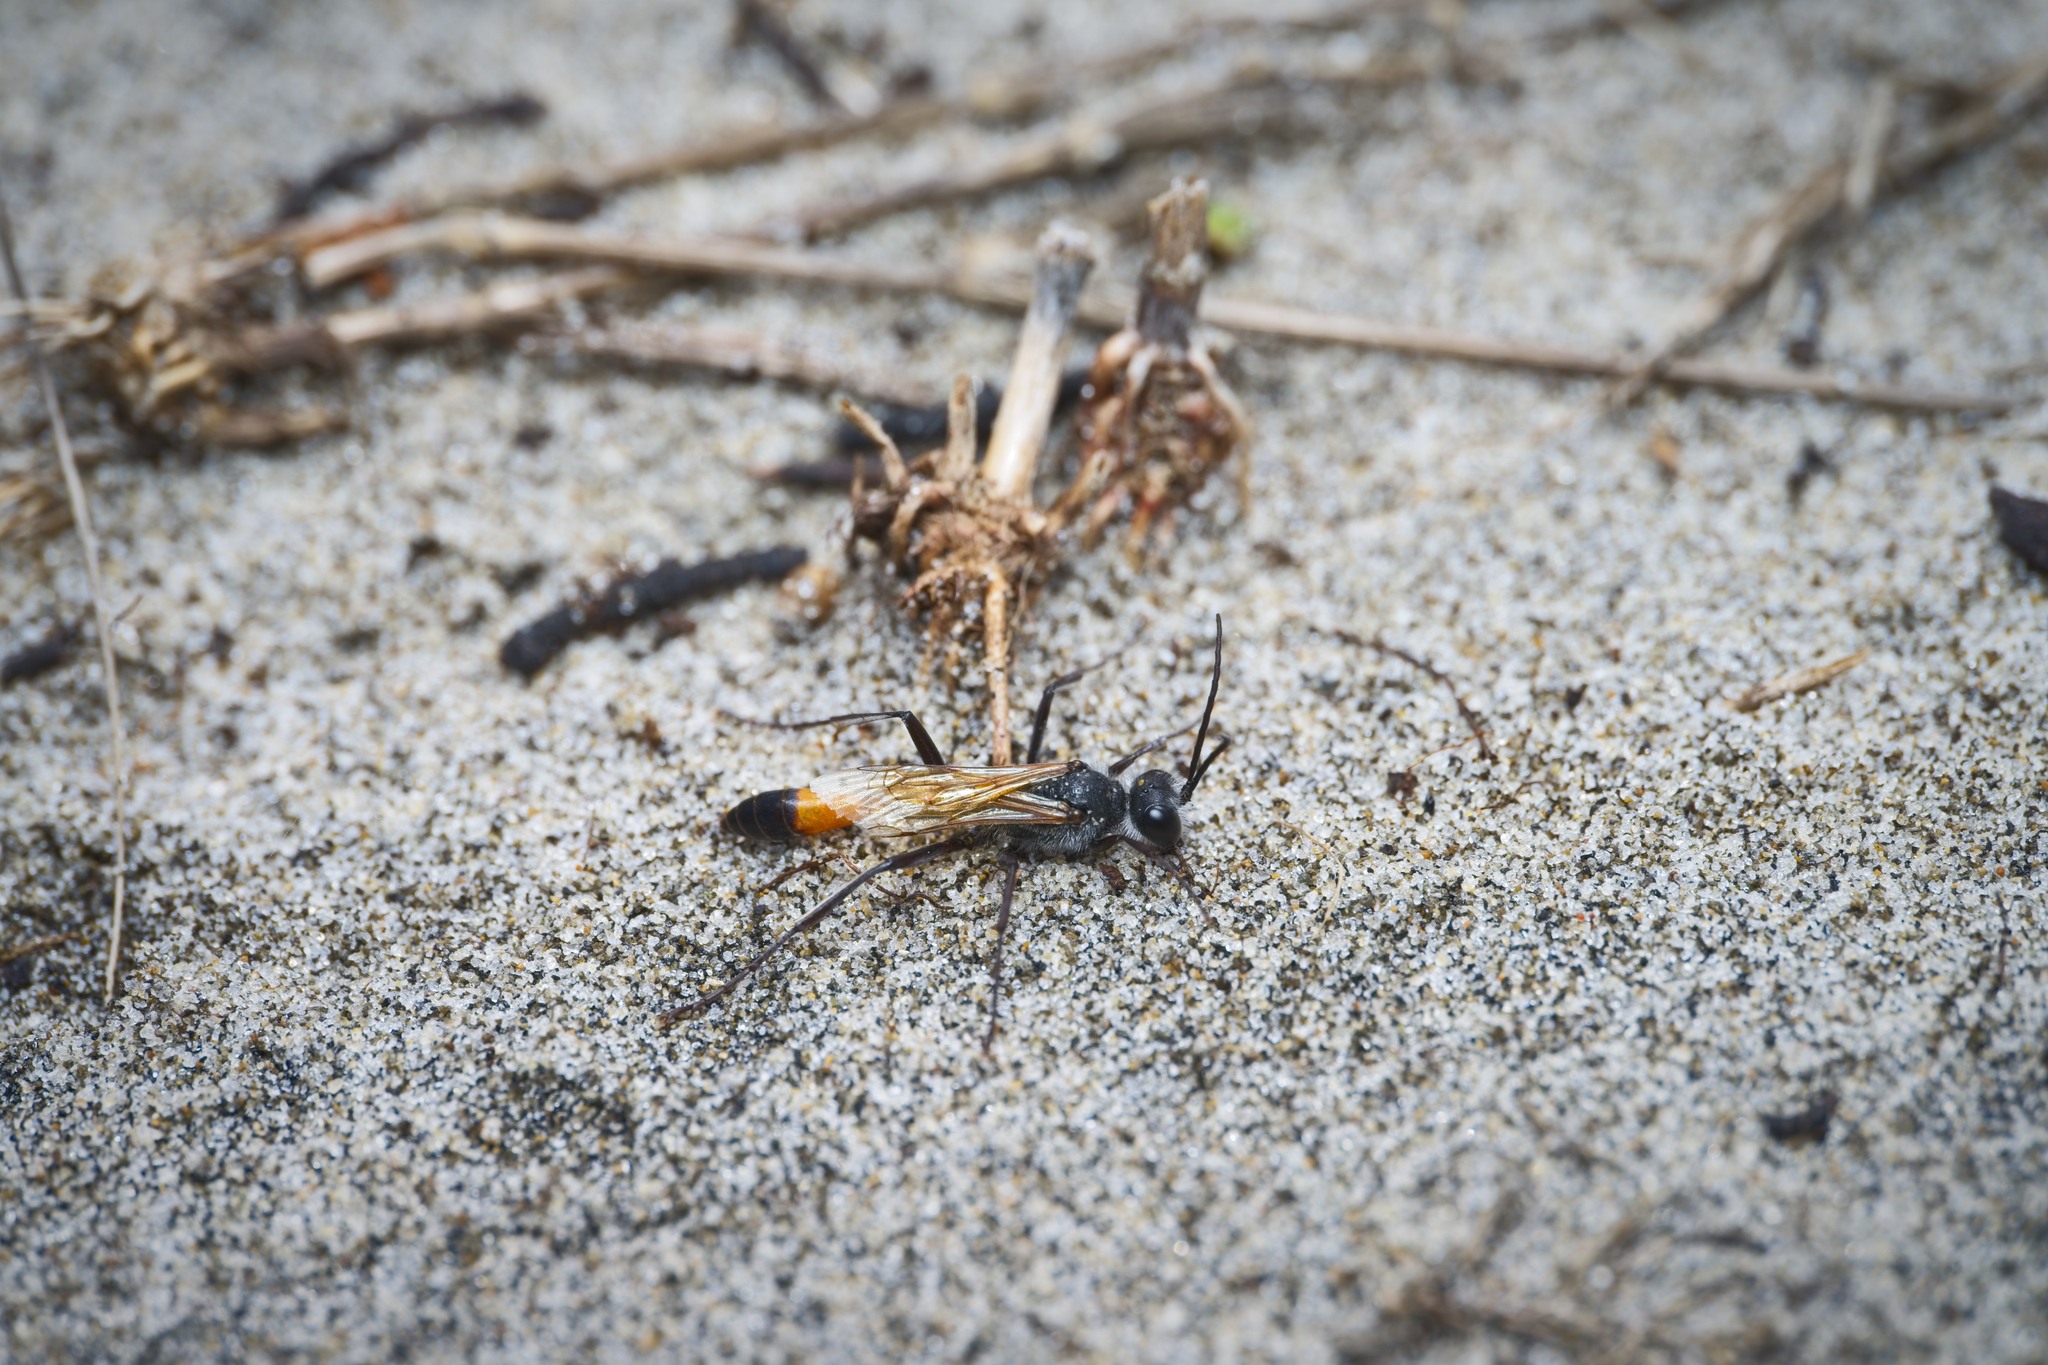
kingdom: Animalia
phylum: Arthropoda
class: Insecta
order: Hymenoptera
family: Sphecidae
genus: Podalonia
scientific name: Podalonia tydei
